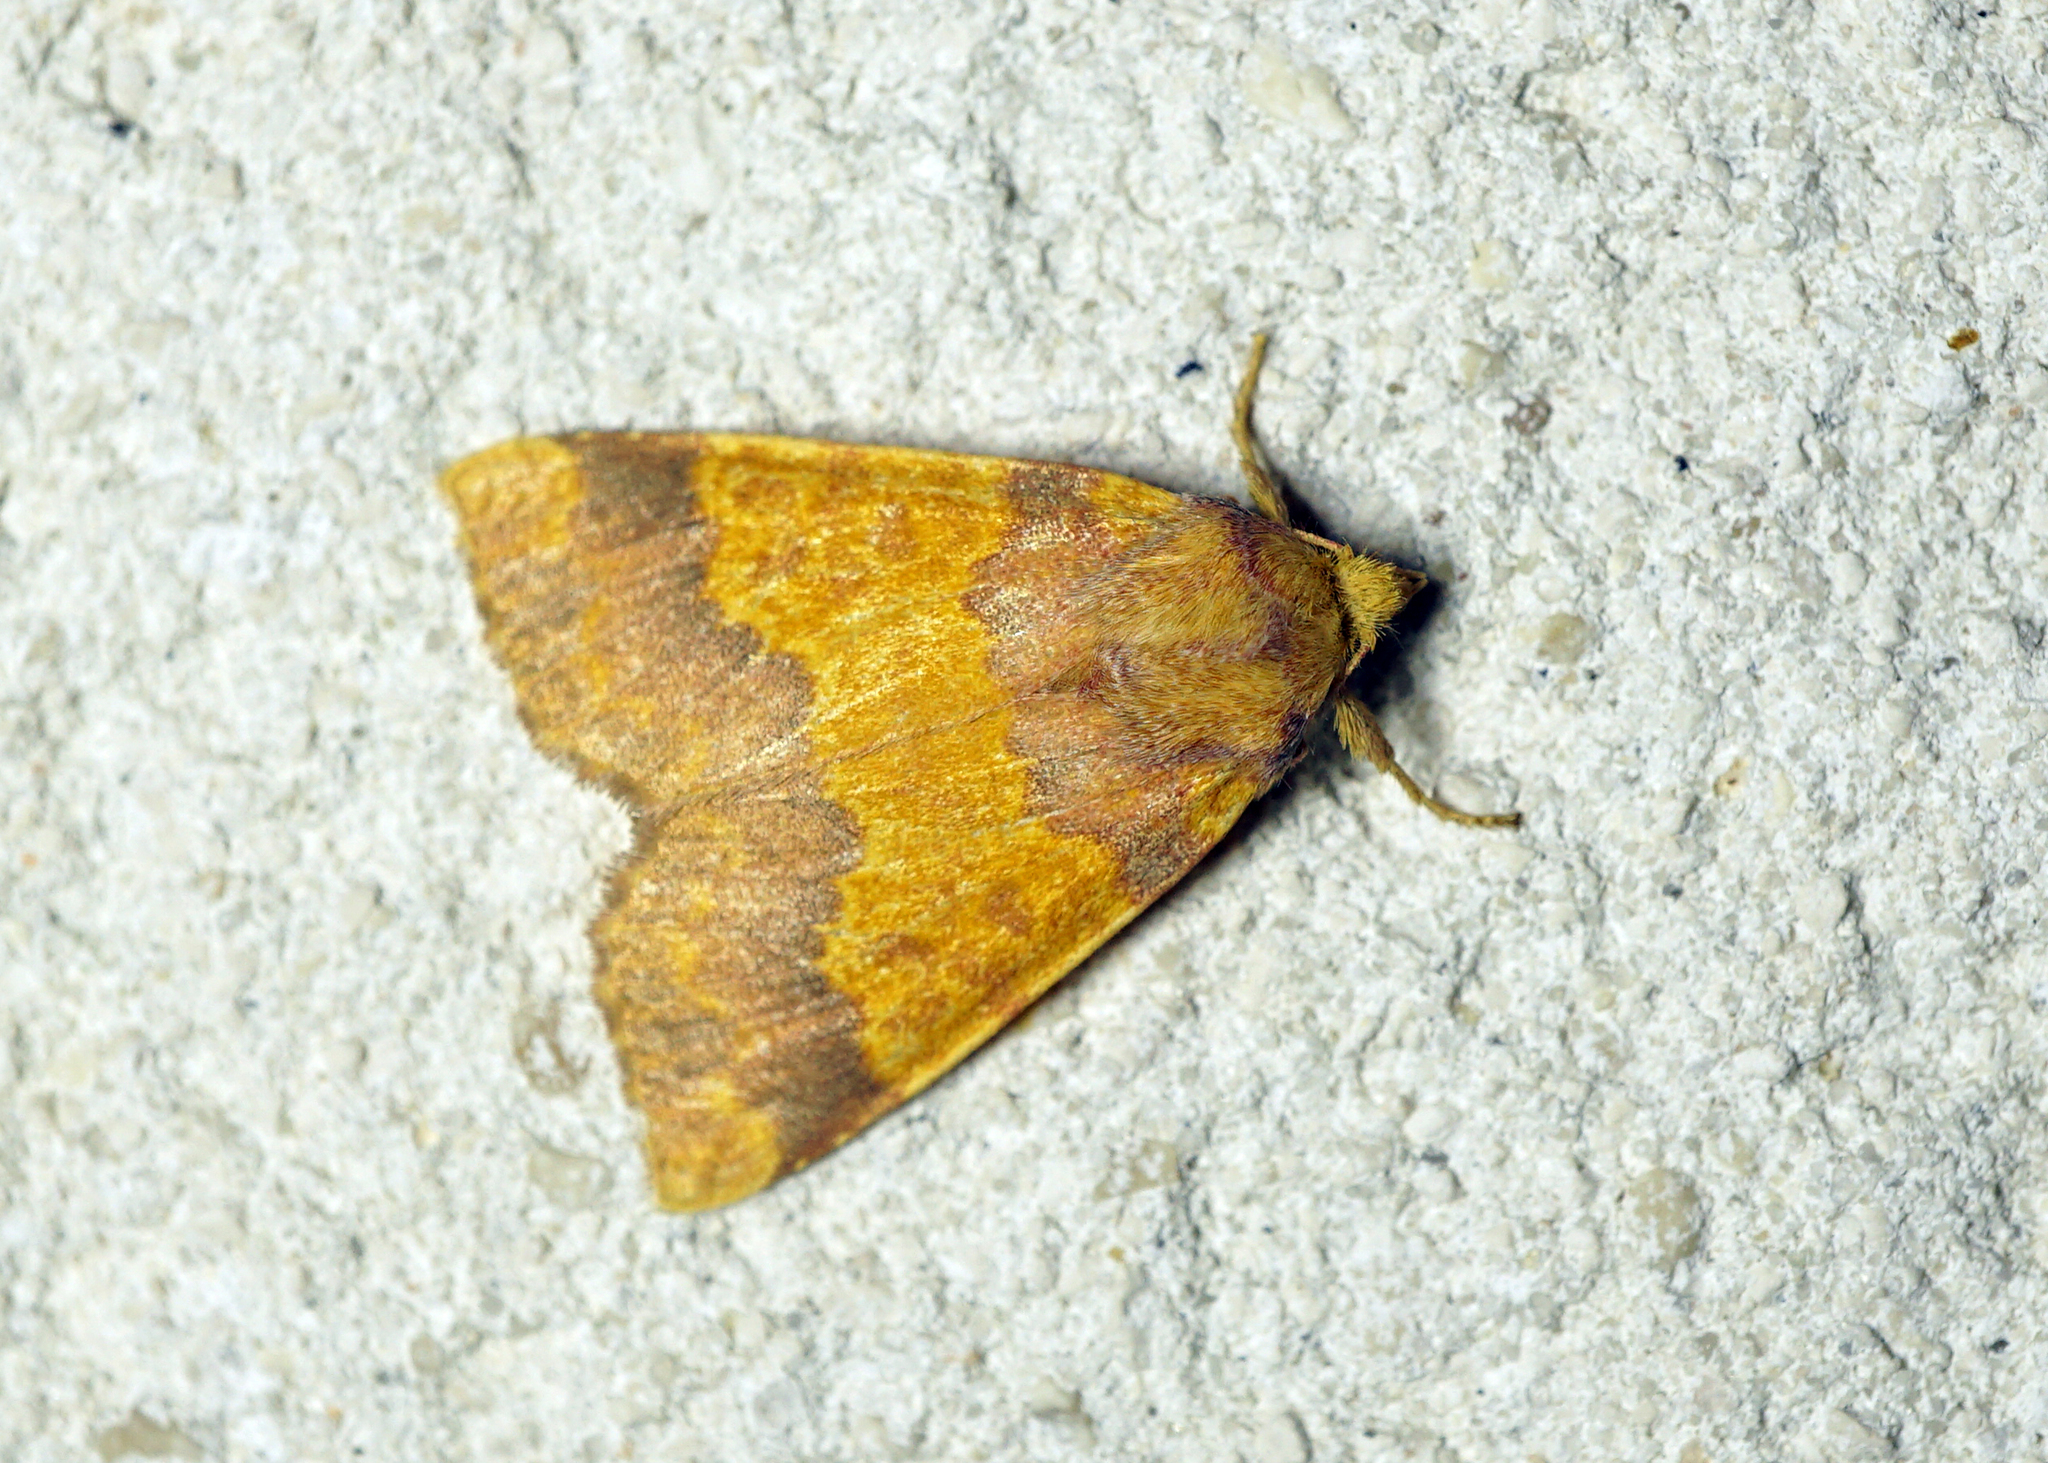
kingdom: Animalia
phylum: Arthropoda
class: Insecta
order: Lepidoptera
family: Noctuidae
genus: Tiliacea
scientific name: Tiliacea aurago
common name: Barred sallow
